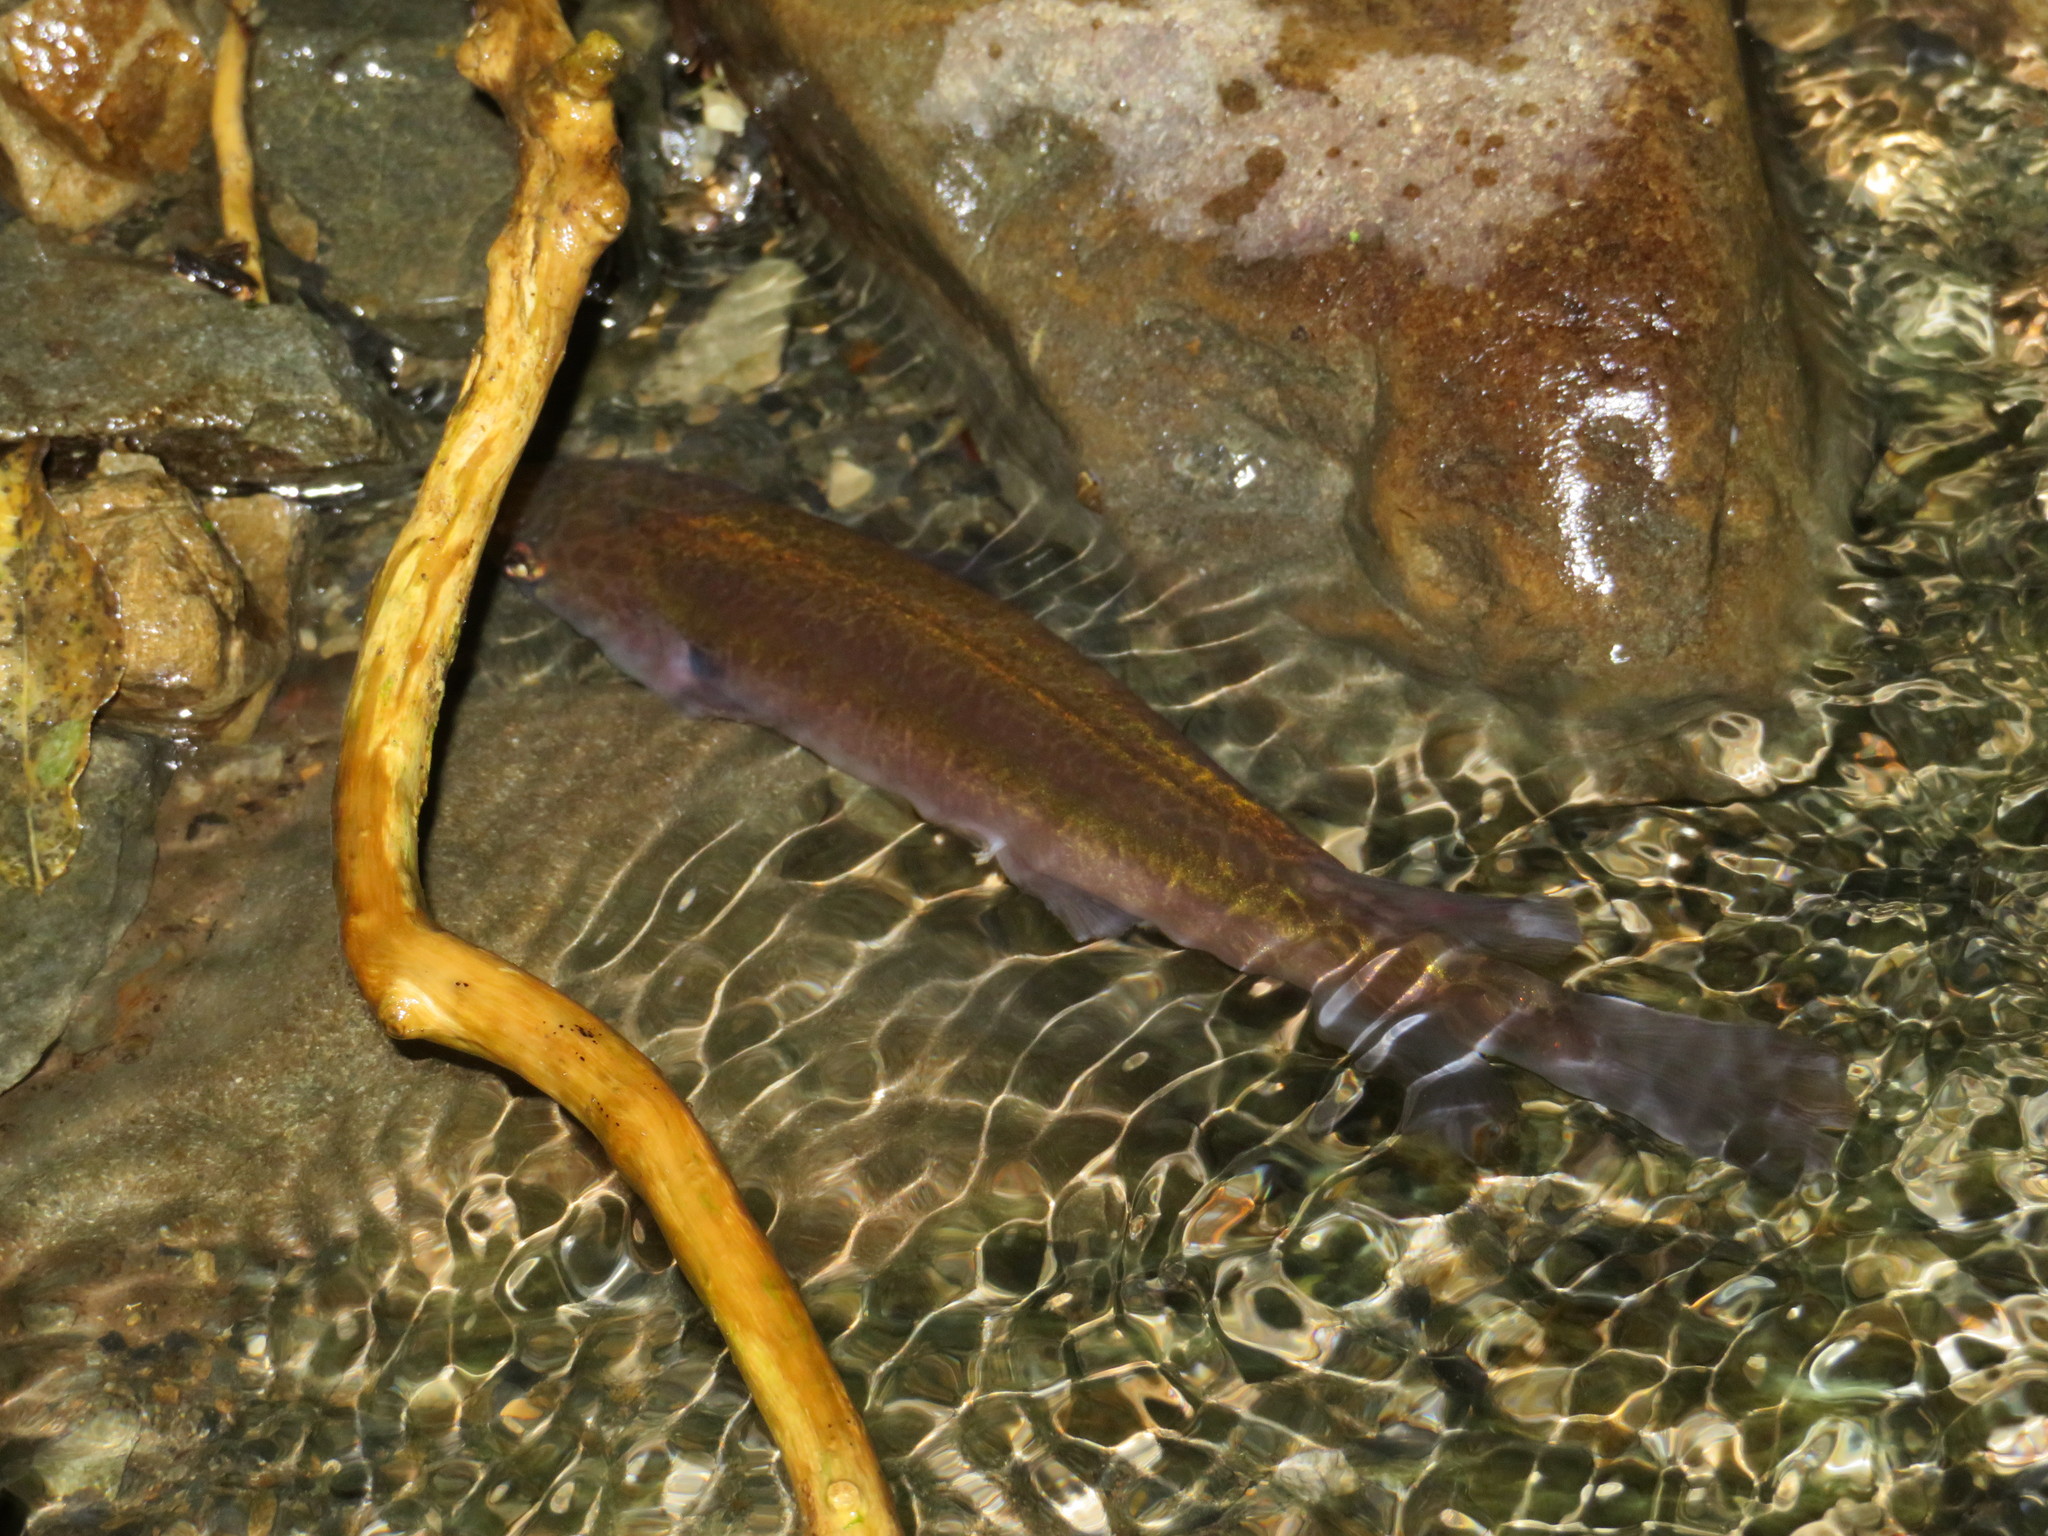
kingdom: Animalia
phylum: Chordata
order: Osmeriformes
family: Galaxiidae
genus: Galaxias
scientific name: Galaxias fasciatus
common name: Banded kokopu
